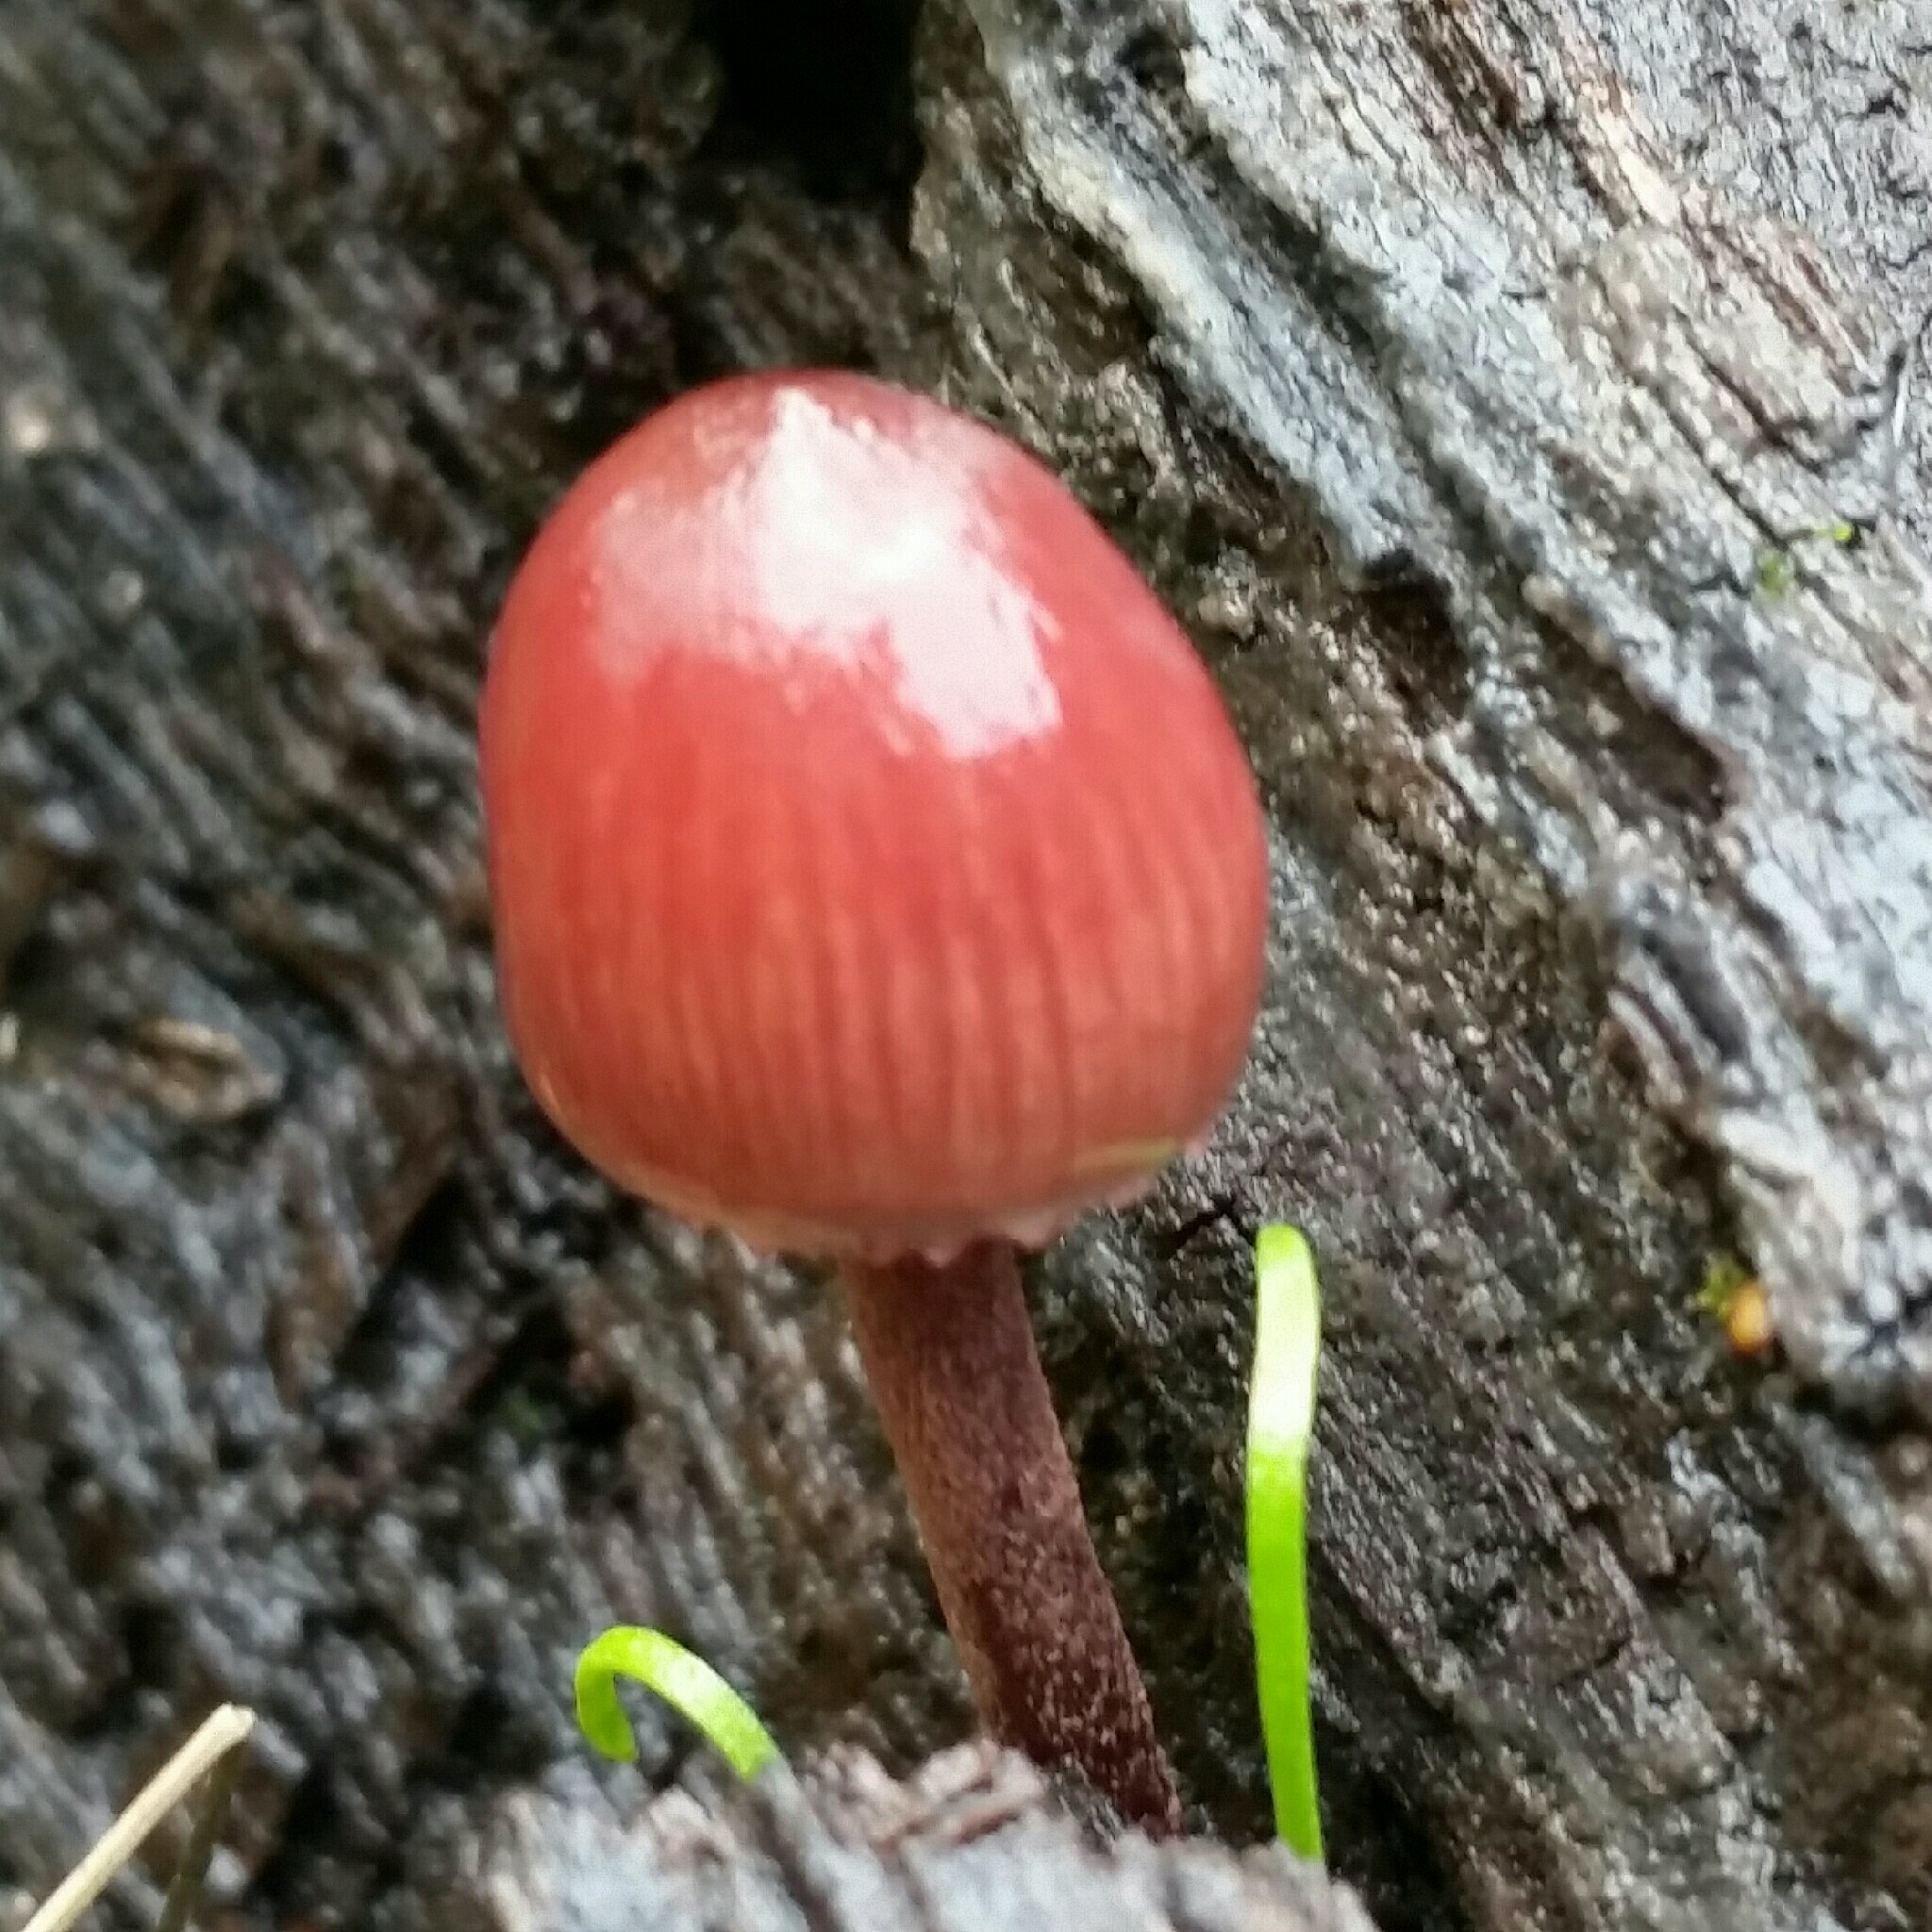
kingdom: Fungi
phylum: Basidiomycota
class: Agaricomycetes
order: Agaricales
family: Mycenaceae
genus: Mycena
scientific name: Mycena haematopus
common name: Burgundydrop bonnet
